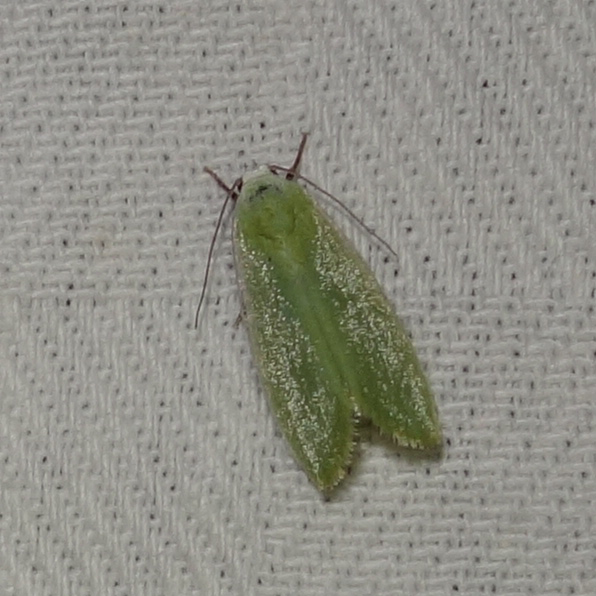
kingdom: Animalia
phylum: Arthropoda
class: Insecta
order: Lepidoptera
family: Nolidae
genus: Earias
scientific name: Earias clorana
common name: Cream-bordered green pea
